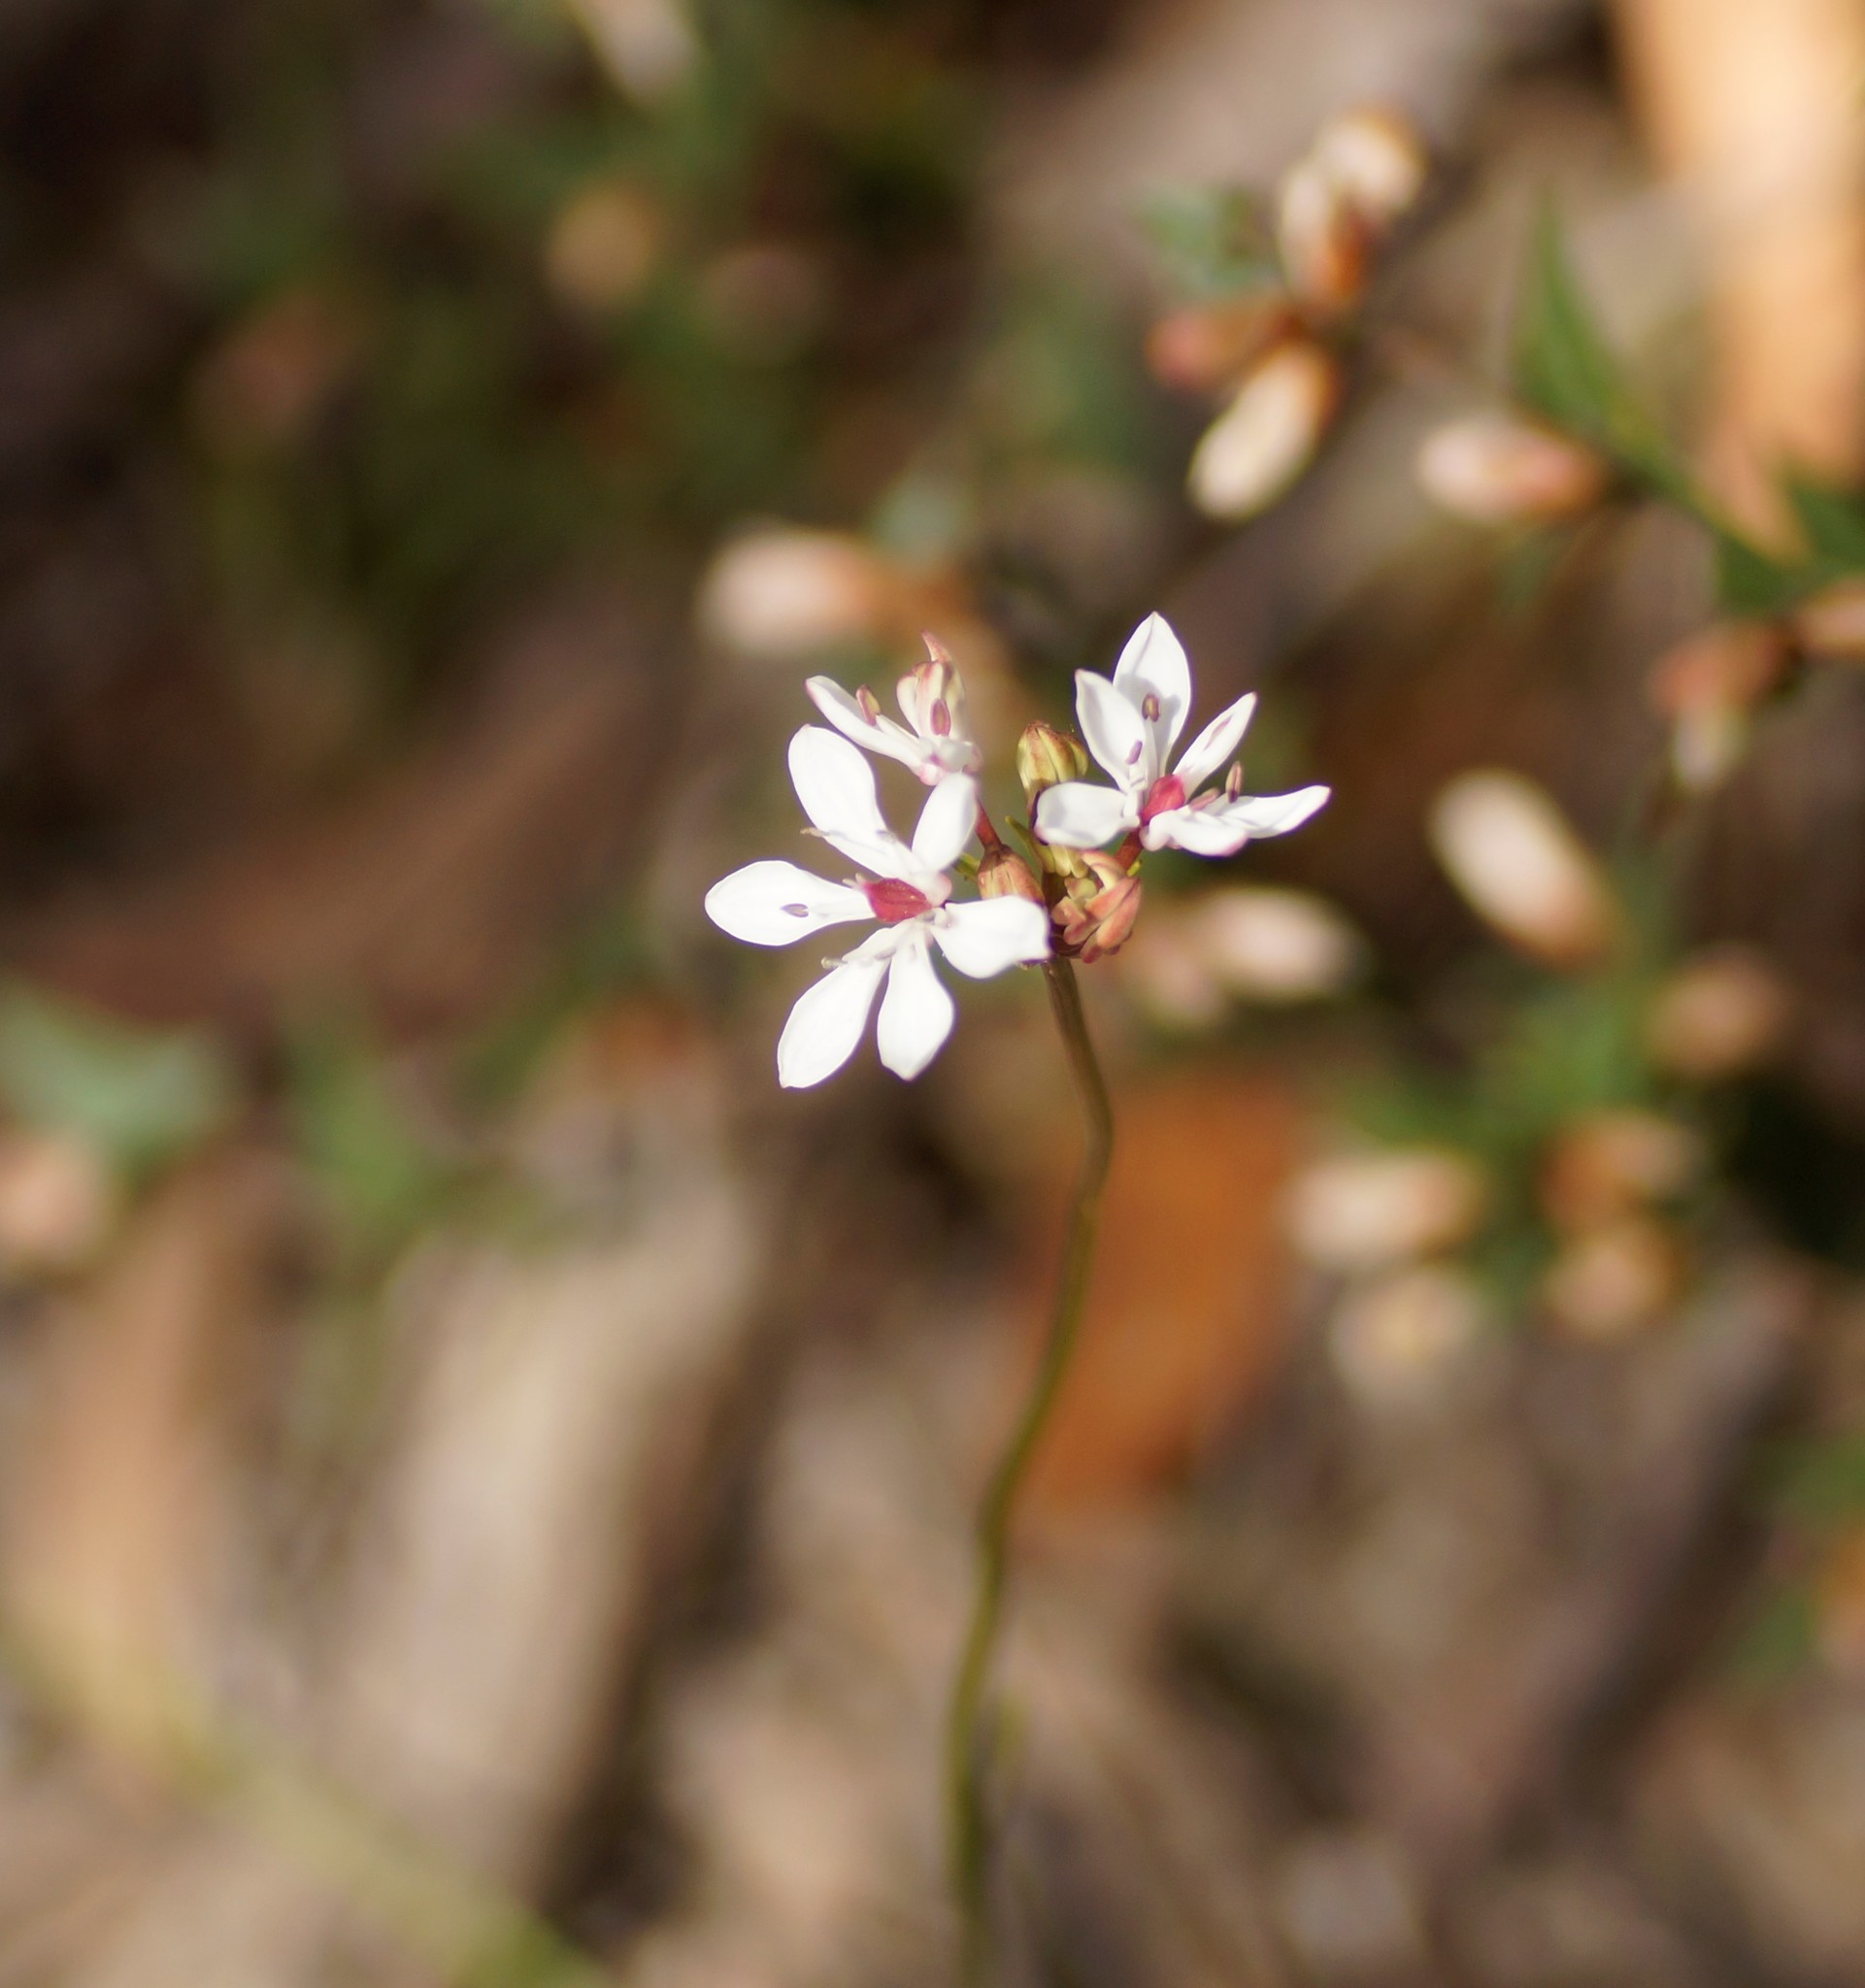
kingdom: Plantae
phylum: Tracheophyta
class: Liliopsida
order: Liliales
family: Colchicaceae
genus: Burchardia
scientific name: Burchardia umbellata
